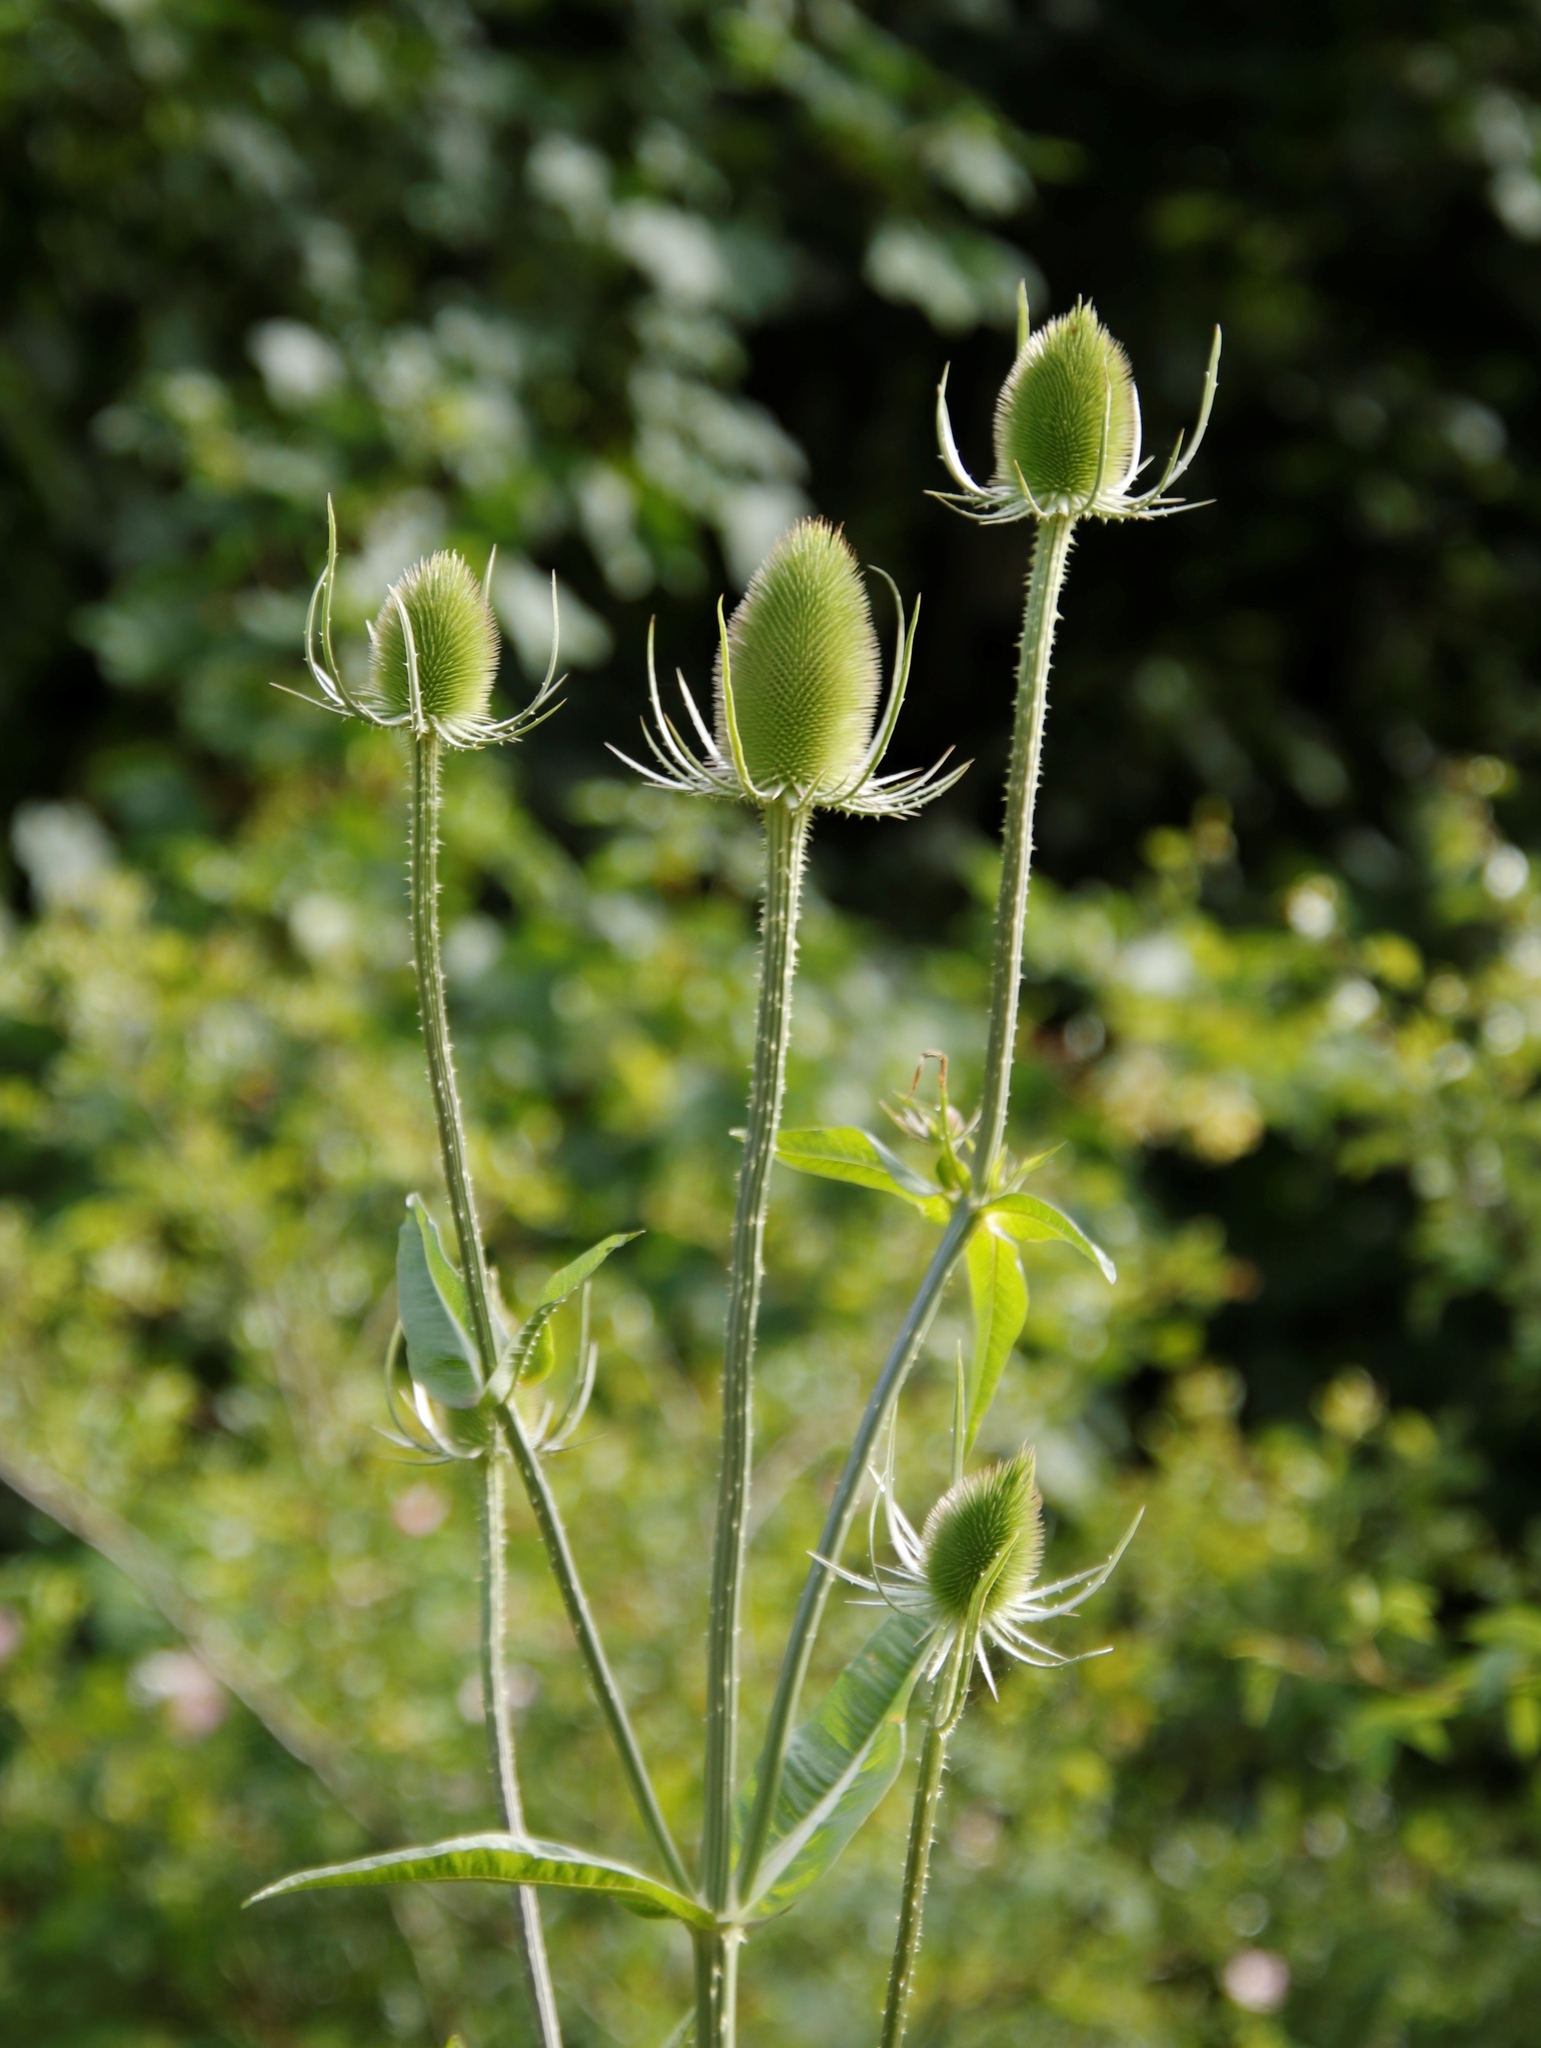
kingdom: Plantae
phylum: Tracheophyta
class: Magnoliopsida
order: Dipsacales
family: Caprifoliaceae
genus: Dipsacus
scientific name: Dipsacus fullonum
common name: Teasel
